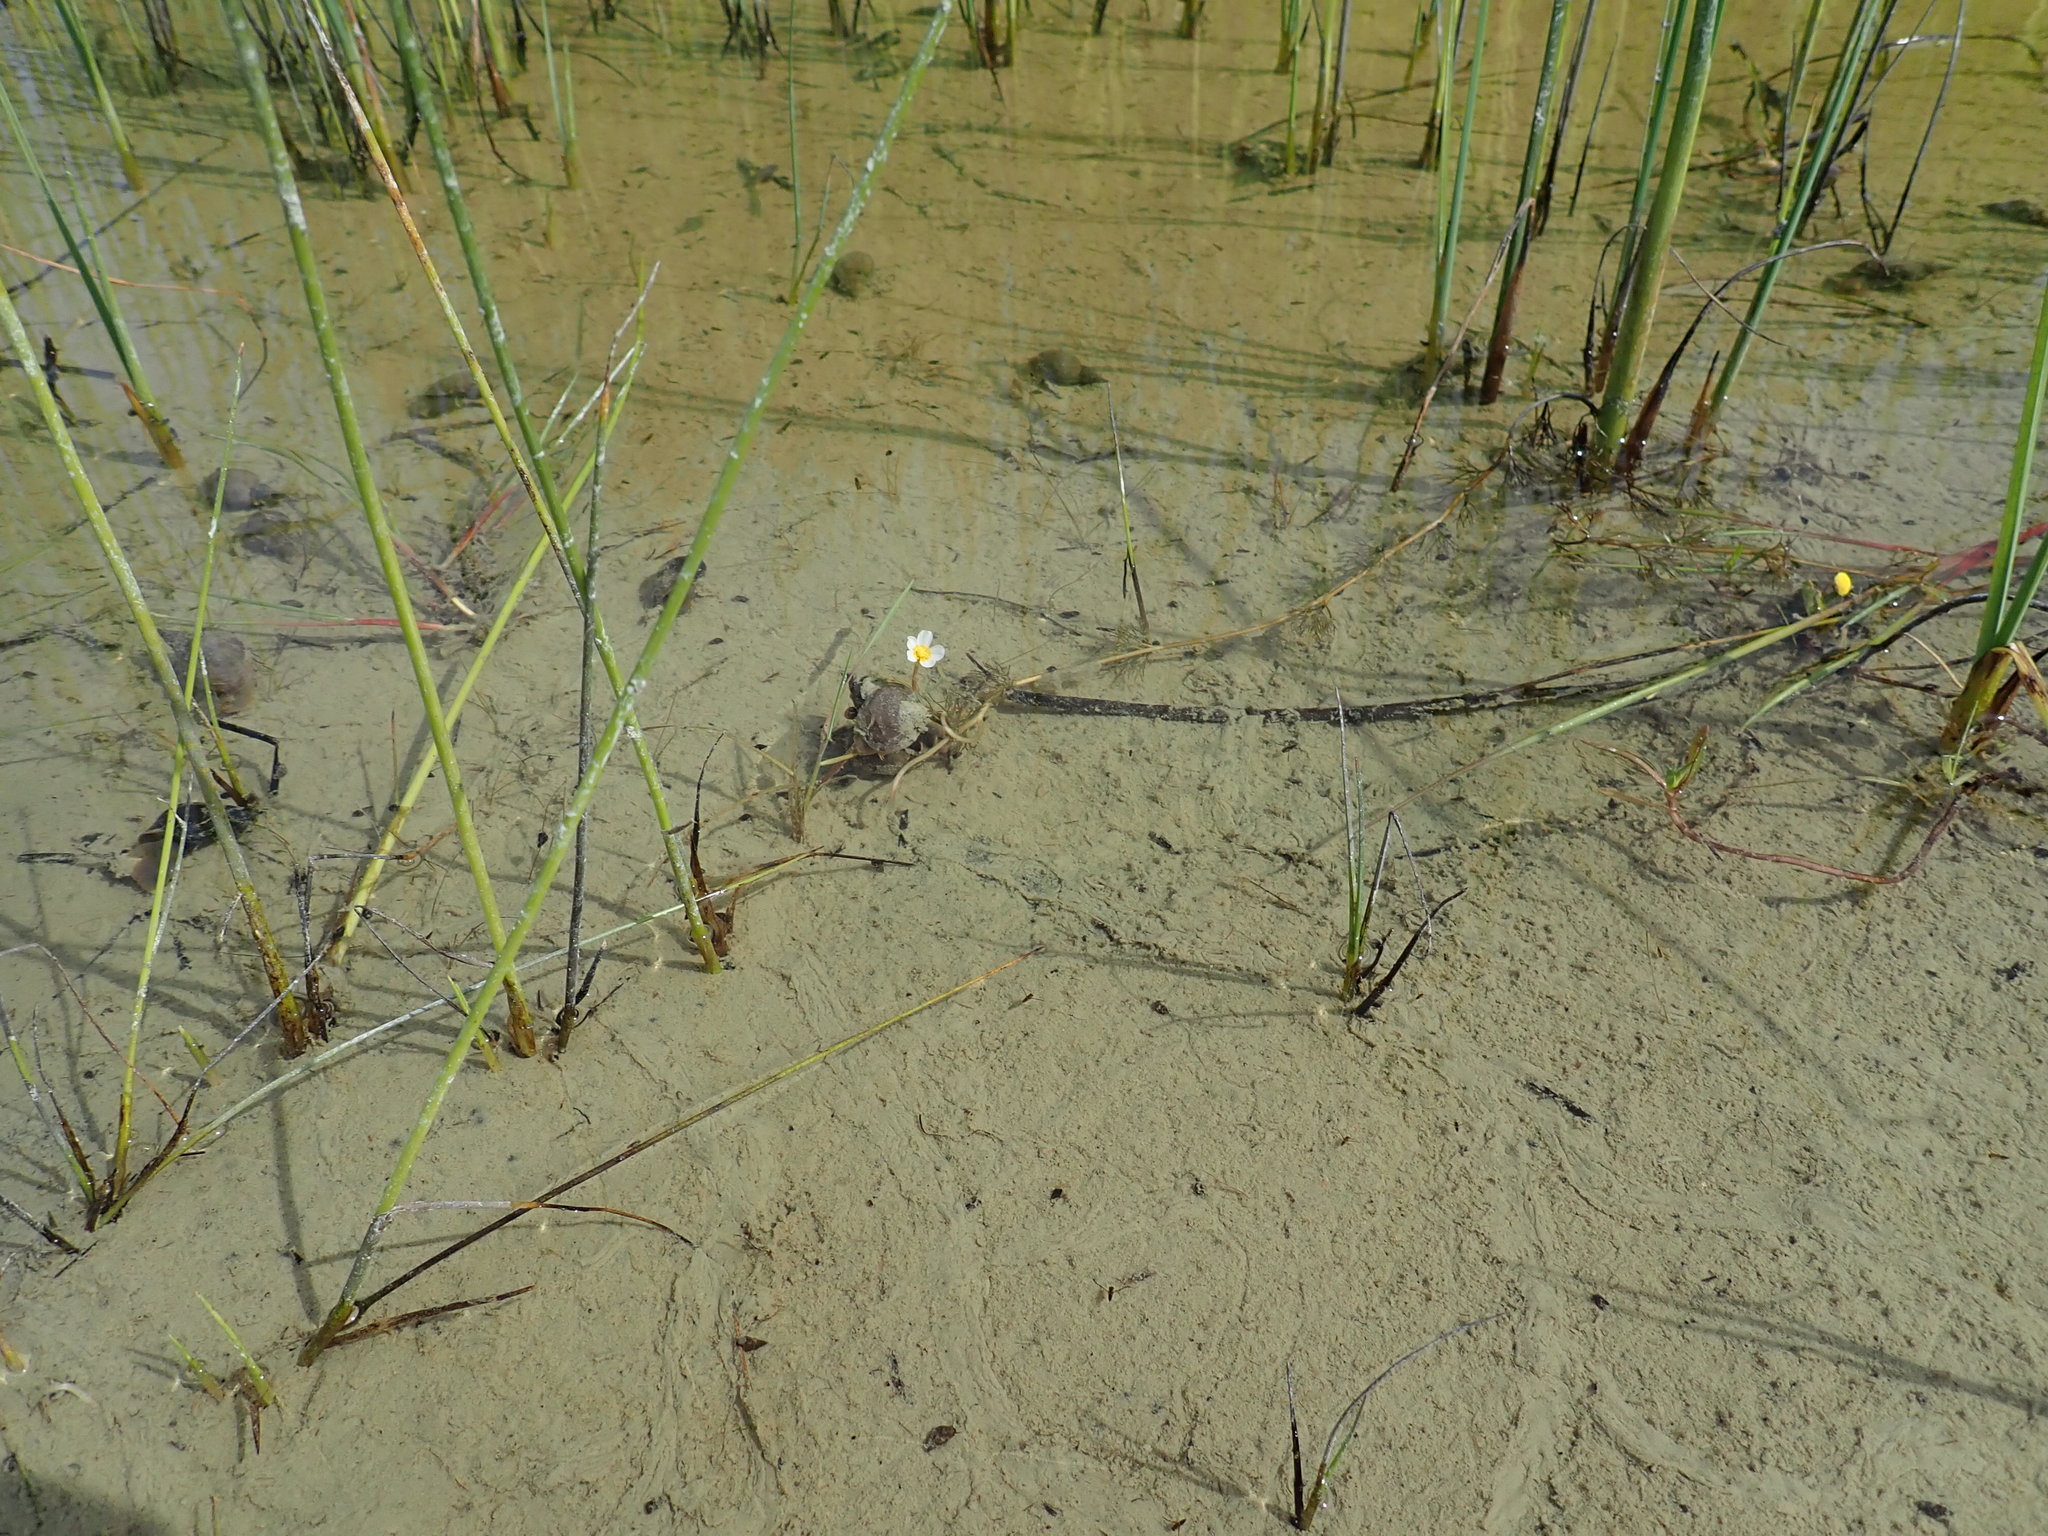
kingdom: Plantae
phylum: Tracheophyta
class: Magnoliopsida
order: Ranunculales
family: Ranunculaceae
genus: Ranunculus
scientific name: Ranunculus trichophyllus
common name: Thread-leaved water-crowfoot
